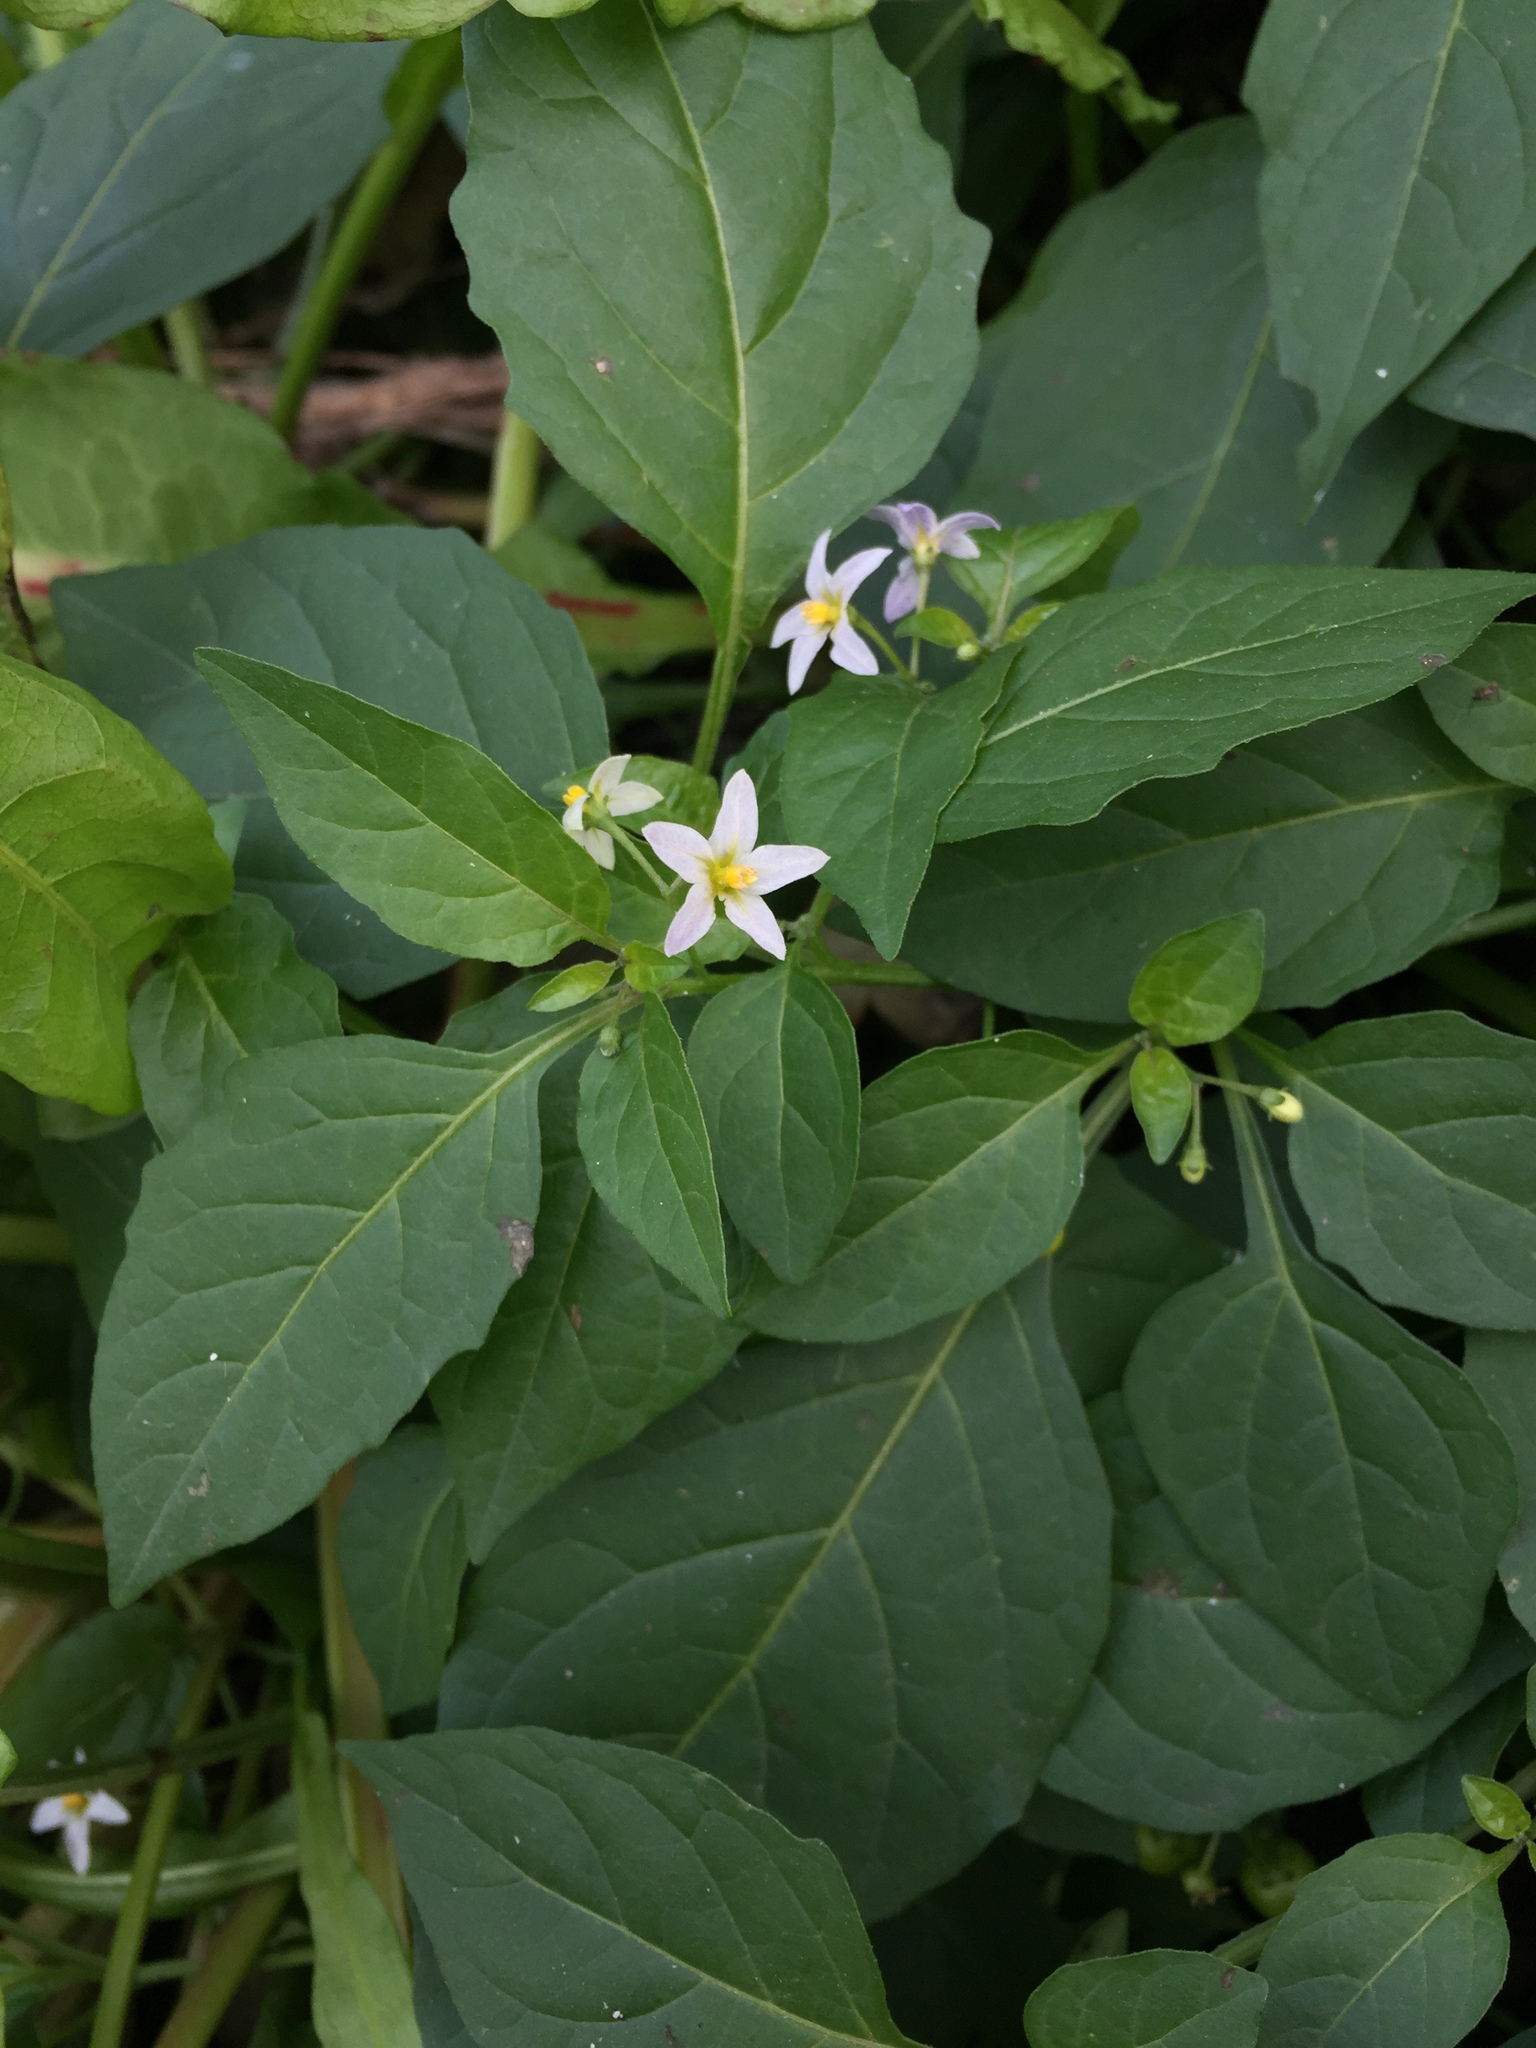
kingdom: Plantae
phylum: Tracheophyta
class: Magnoliopsida
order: Solanales
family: Solanaceae
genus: Solanum
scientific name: Solanum emulans
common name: Eastern black nightshade
